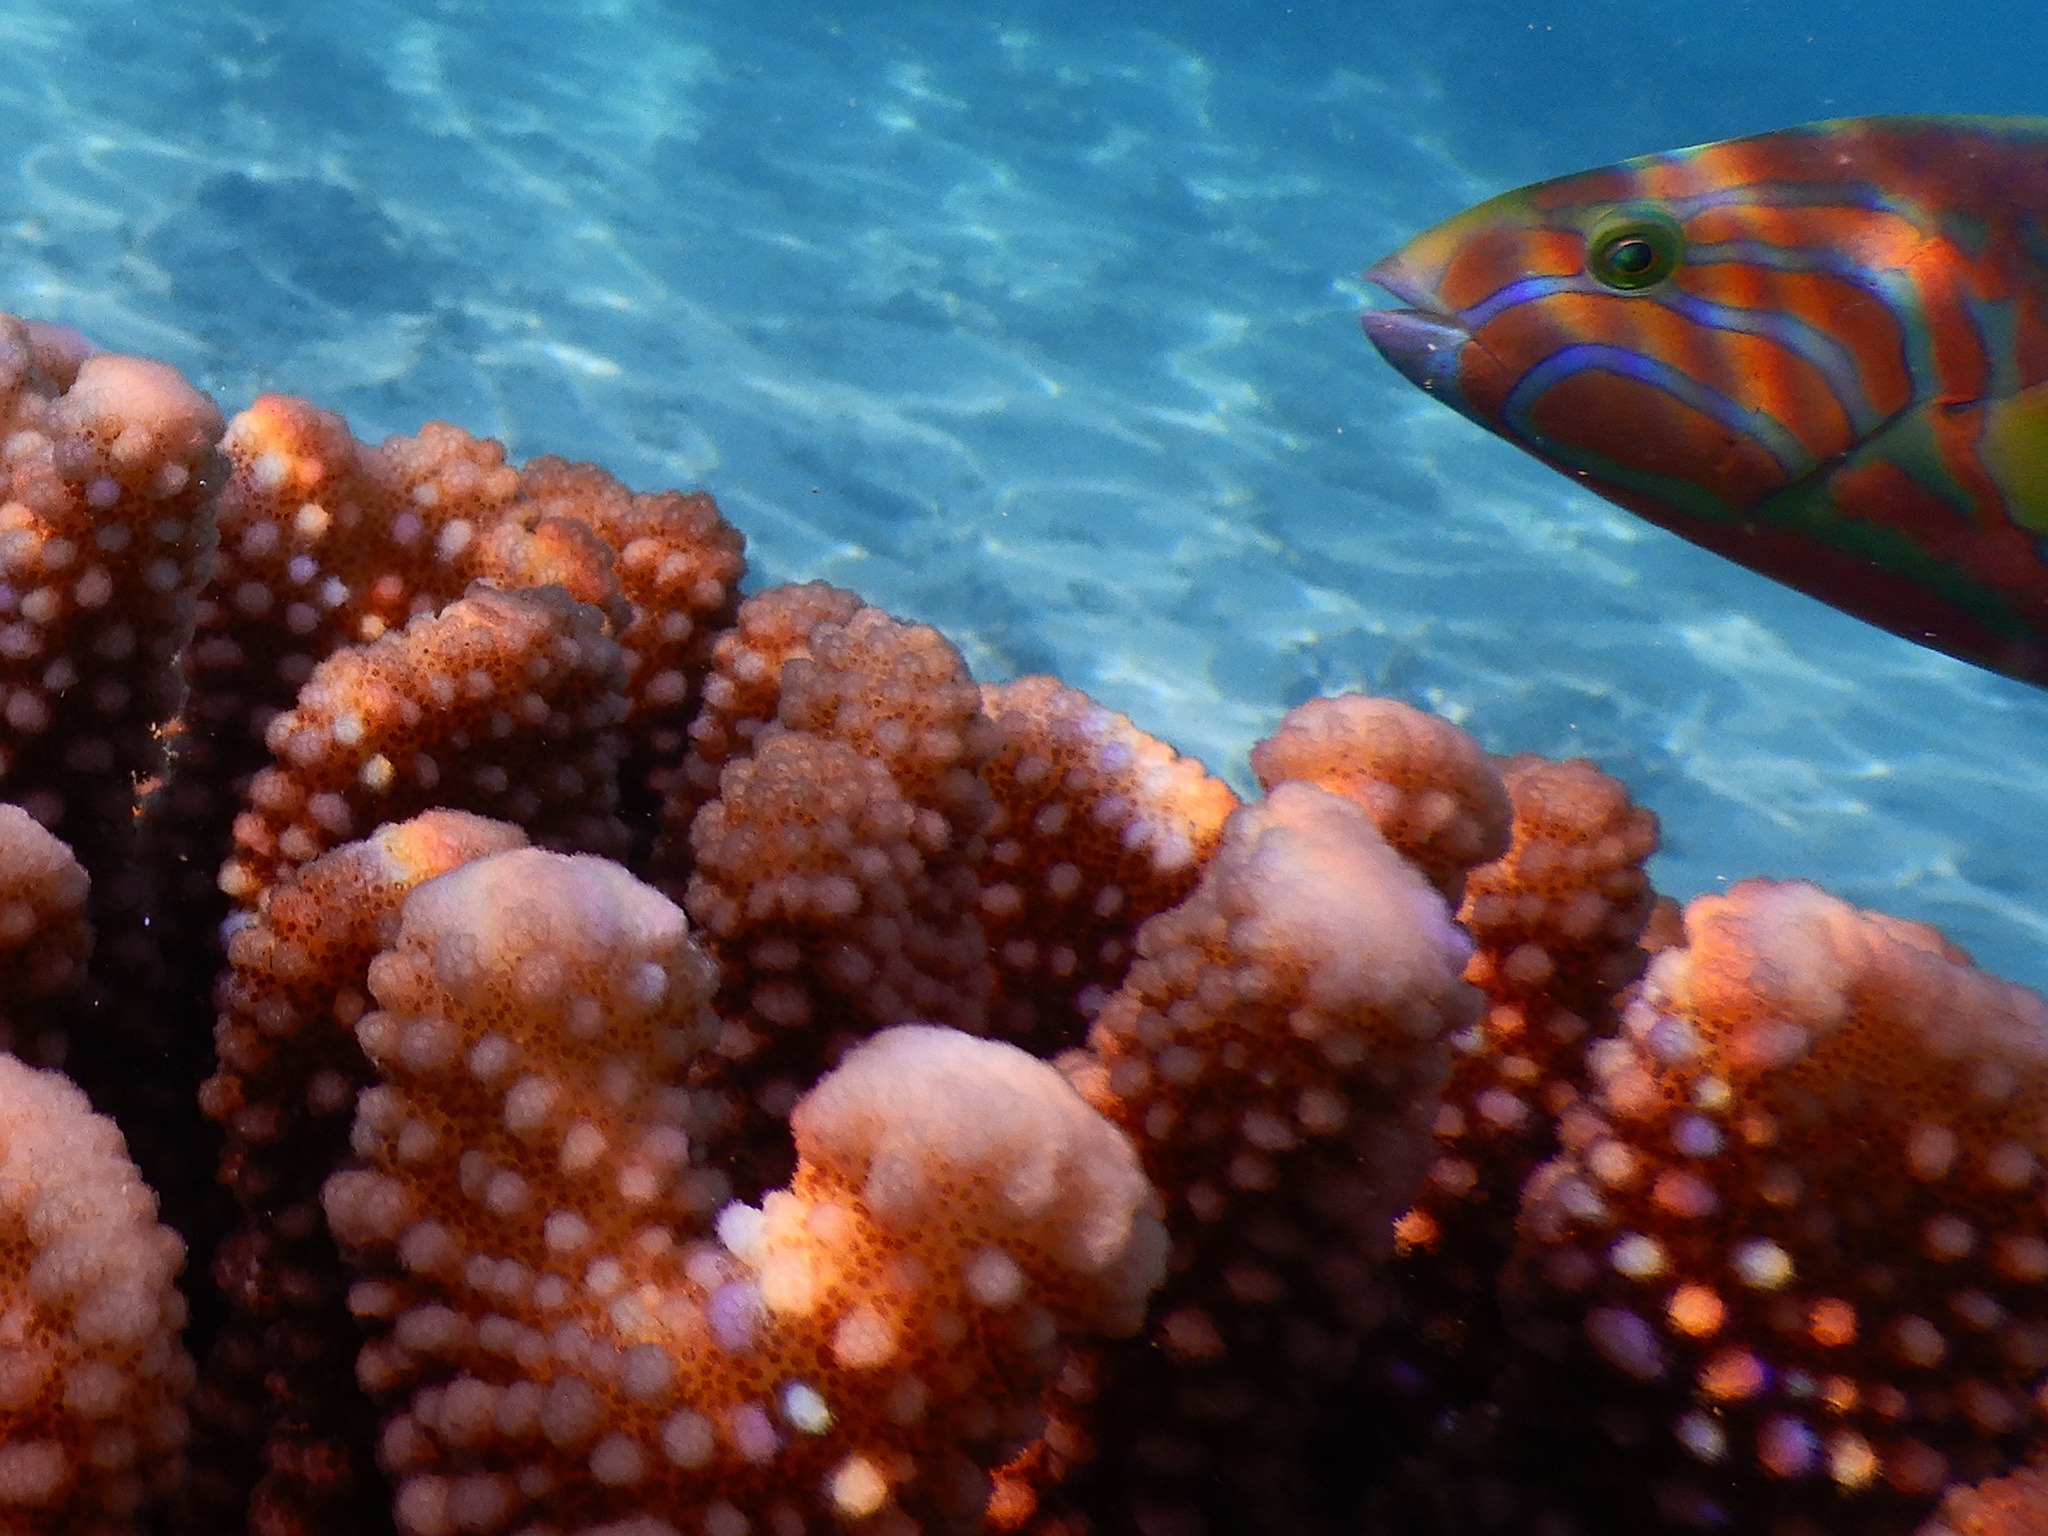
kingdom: Animalia
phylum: Chordata
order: Perciformes
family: Labridae
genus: Thalassoma
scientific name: Thalassoma lutescens
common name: Green moon wrasse
